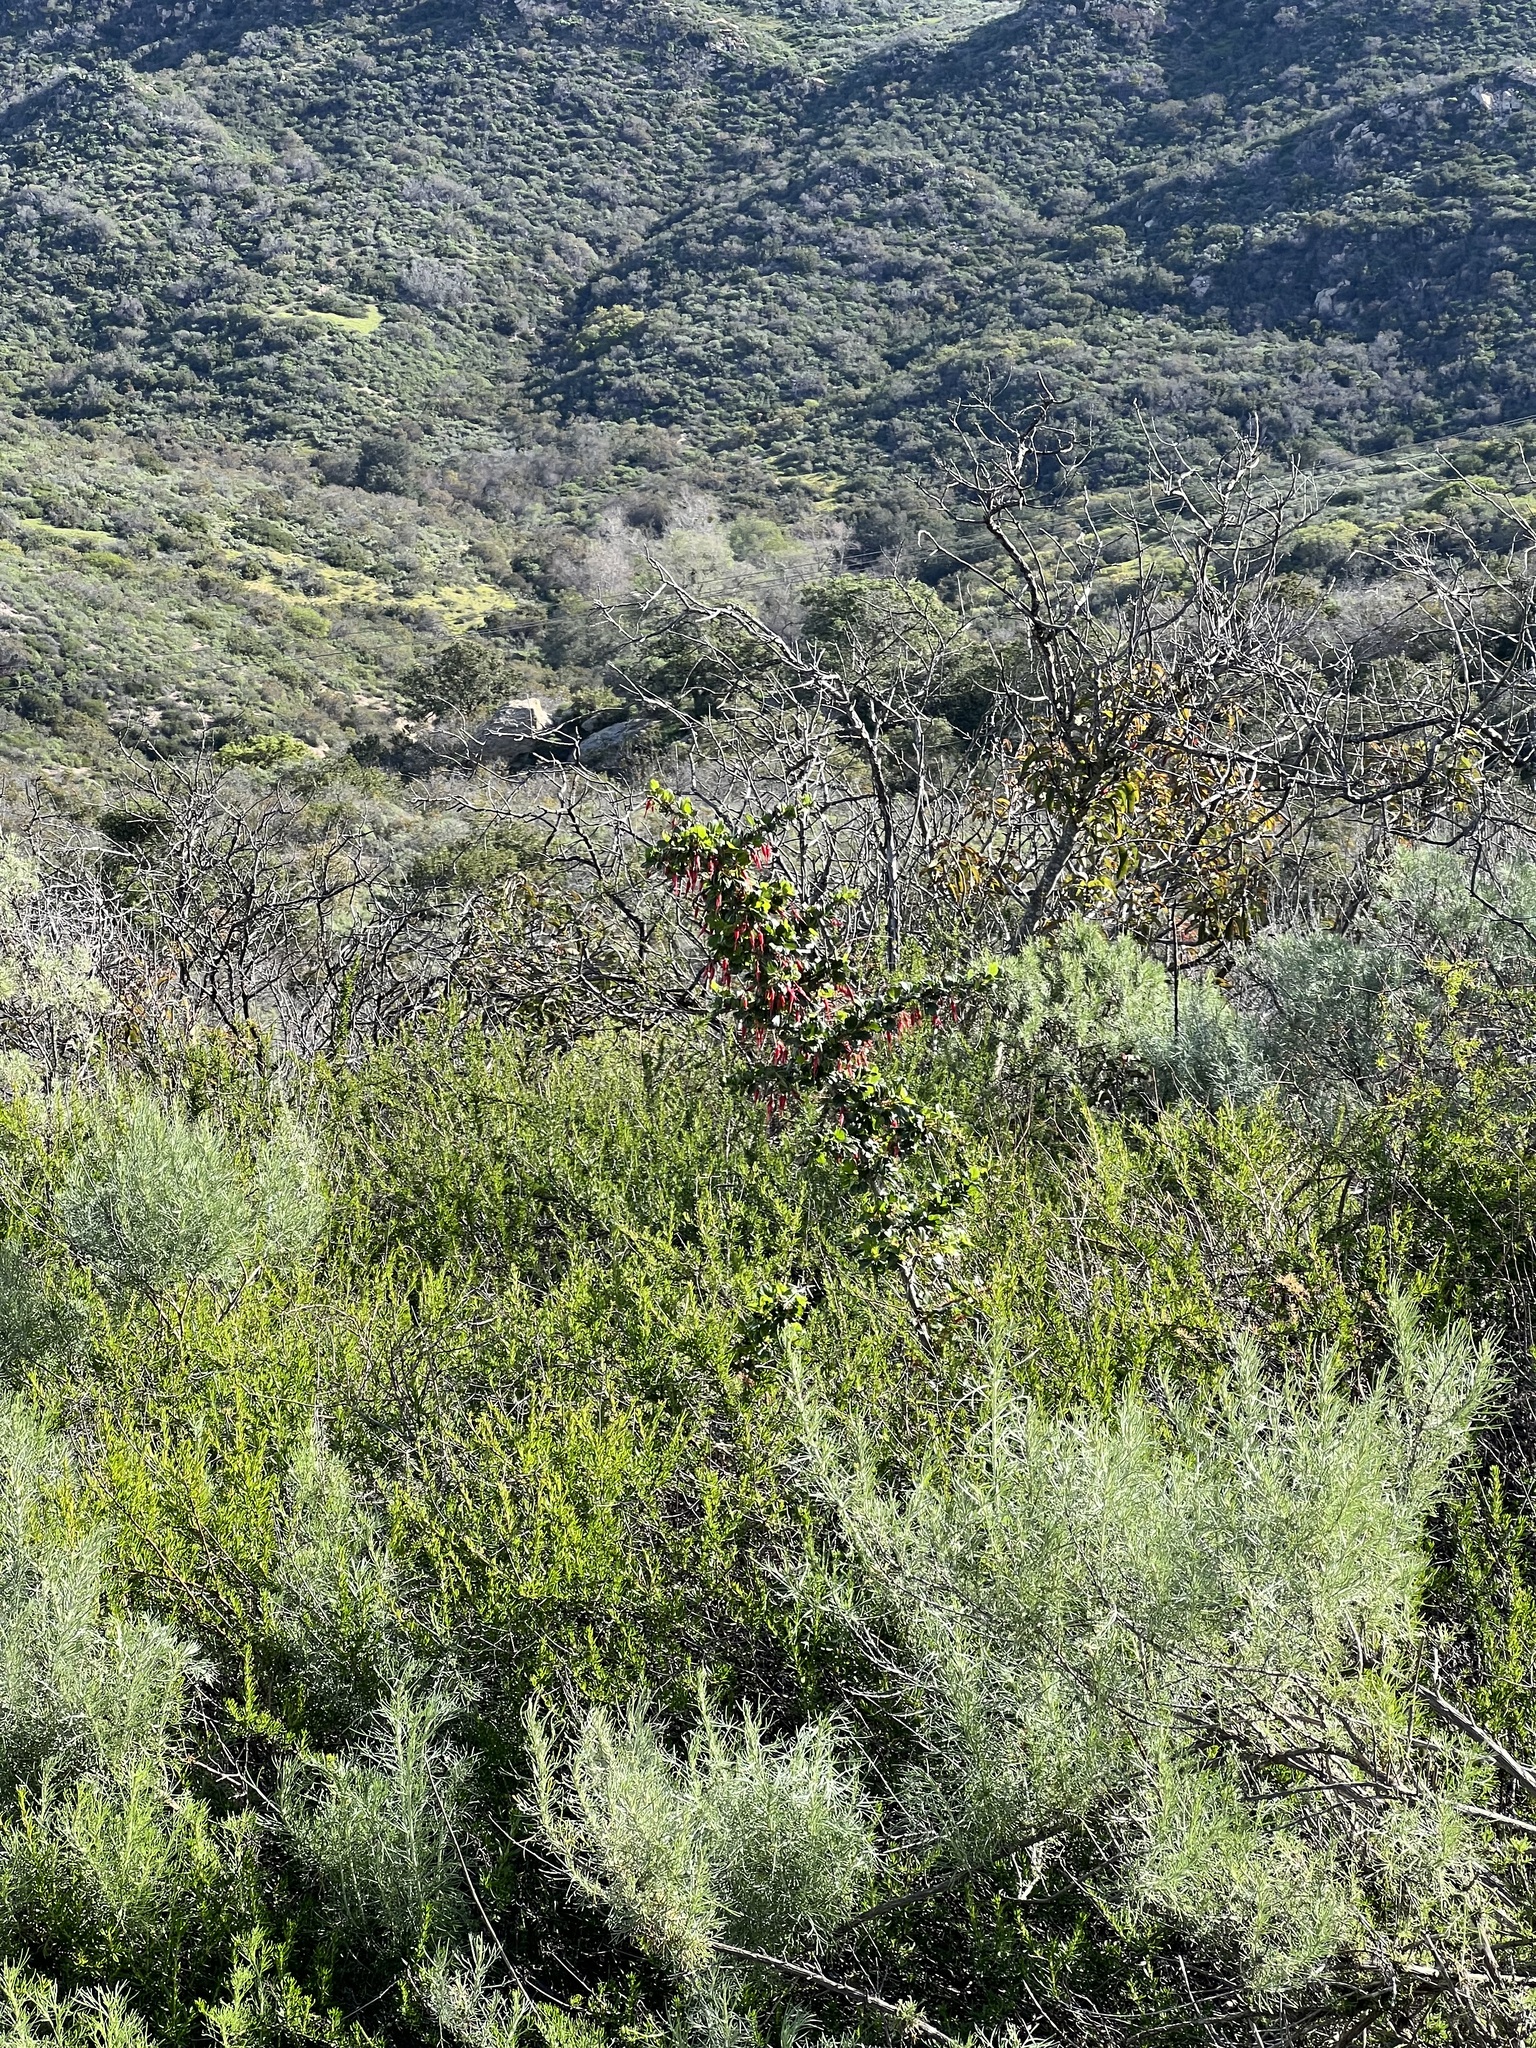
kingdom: Plantae
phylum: Tracheophyta
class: Magnoliopsida
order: Saxifragales
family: Grossulariaceae
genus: Ribes
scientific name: Ribes speciosum
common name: Fuchsia-flower gooseberry
